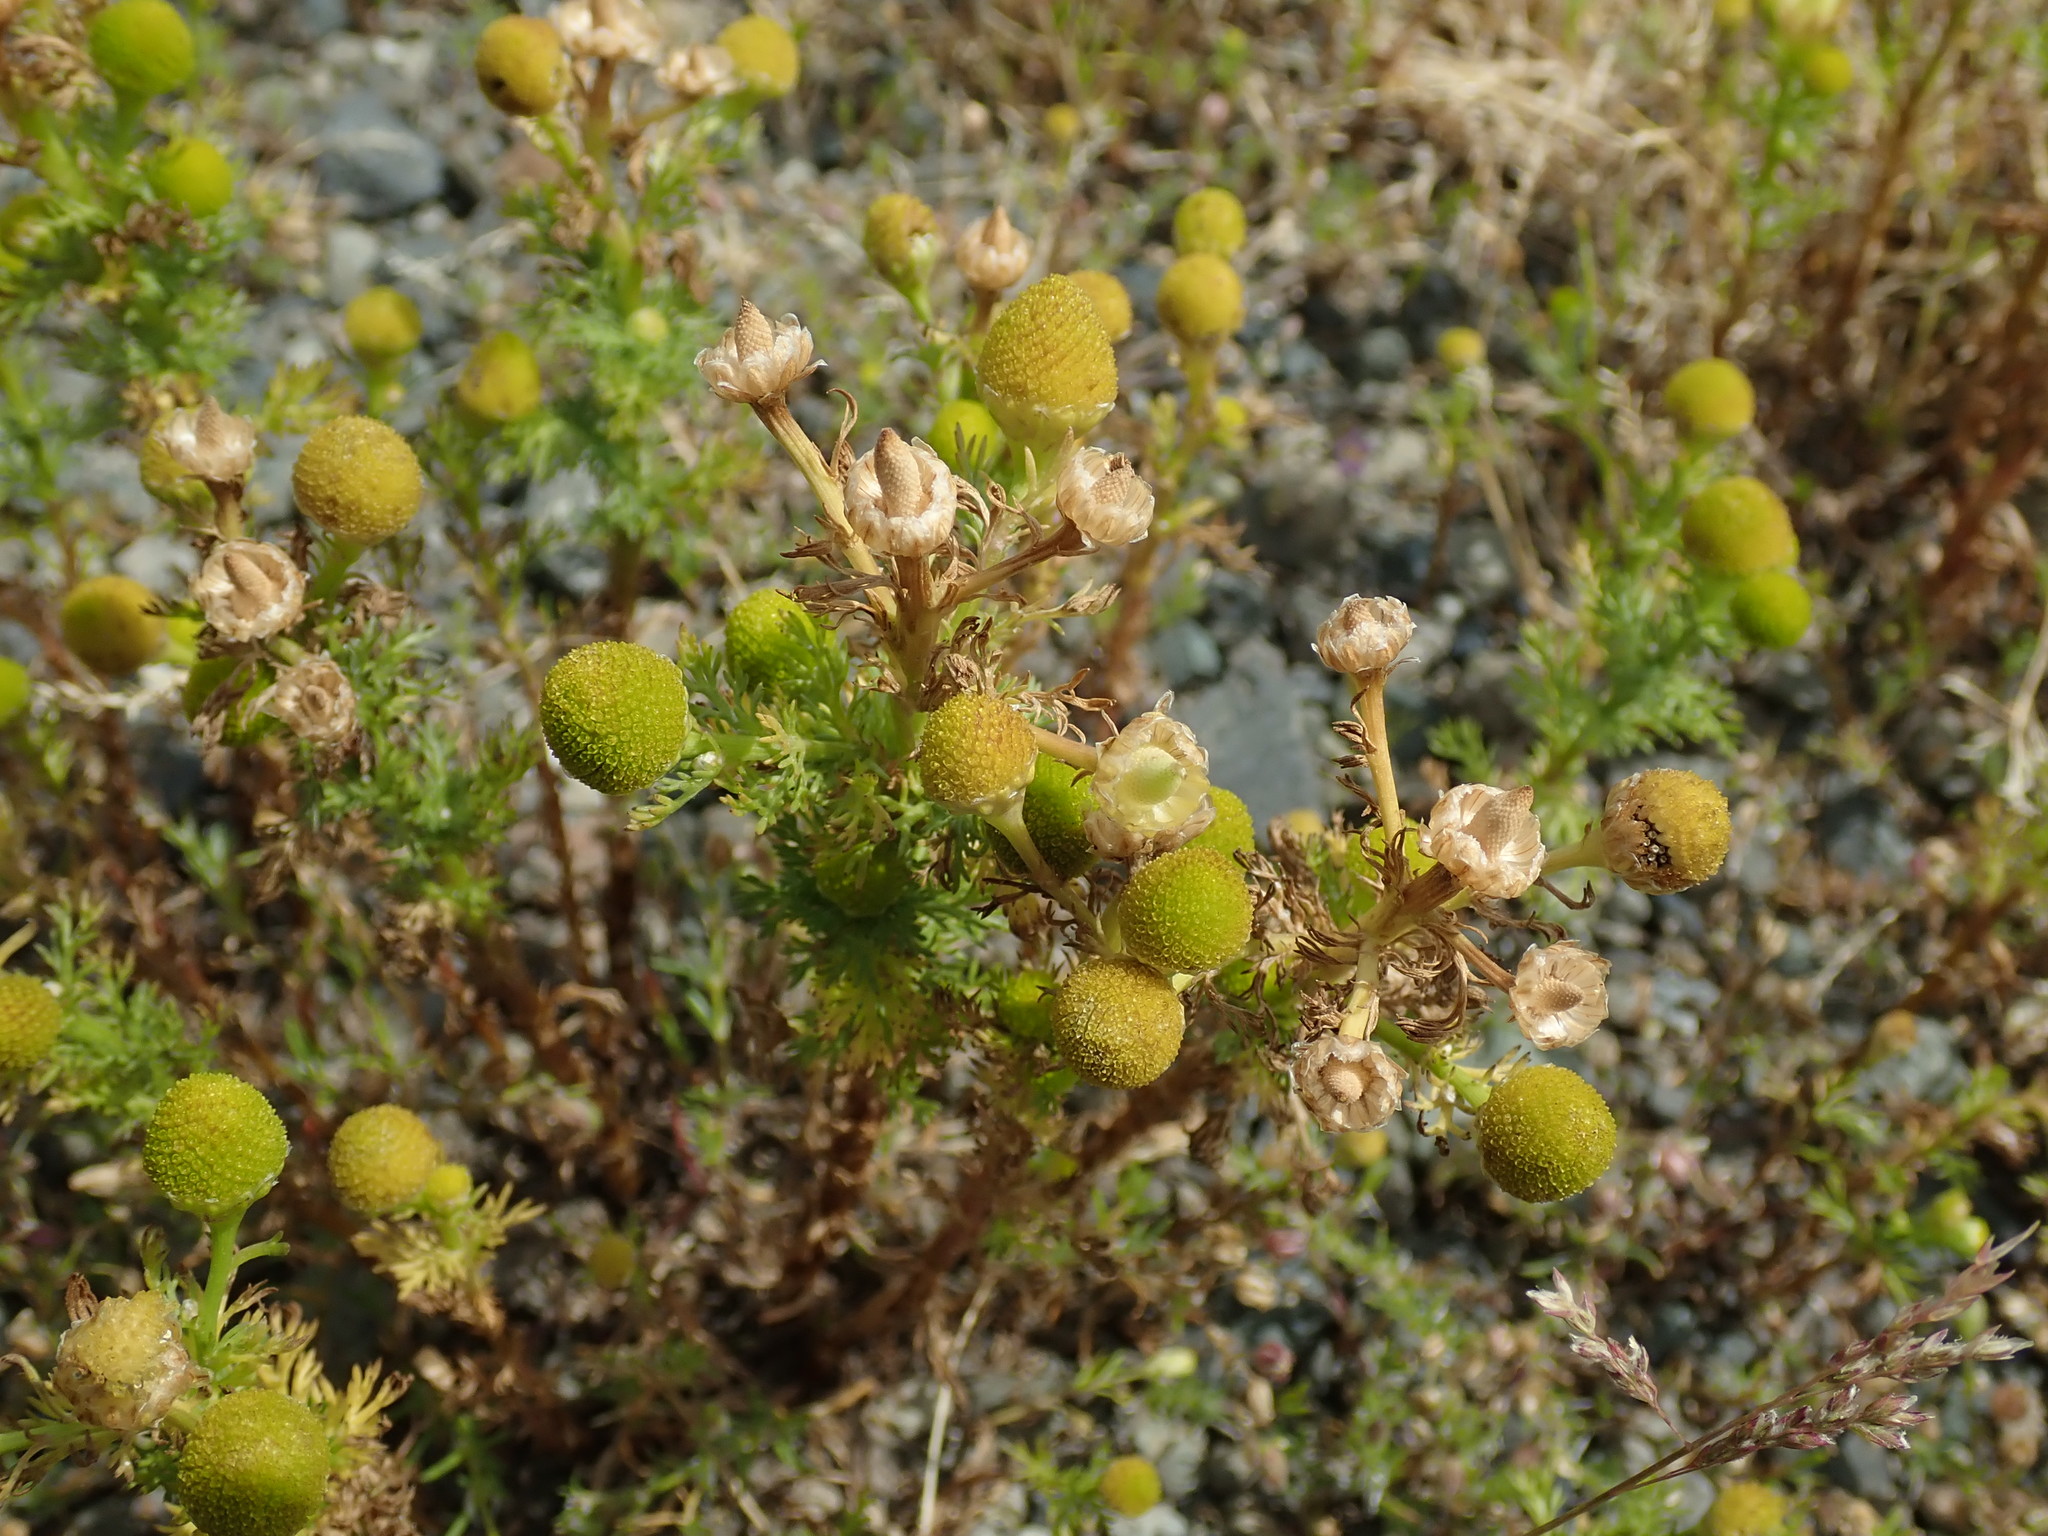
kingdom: Plantae
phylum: Tracheophyta
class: Magnoliopsida
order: Asterales
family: Asteraceae
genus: Matricaria
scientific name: Matricaria discoidea
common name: Disc mayweed
